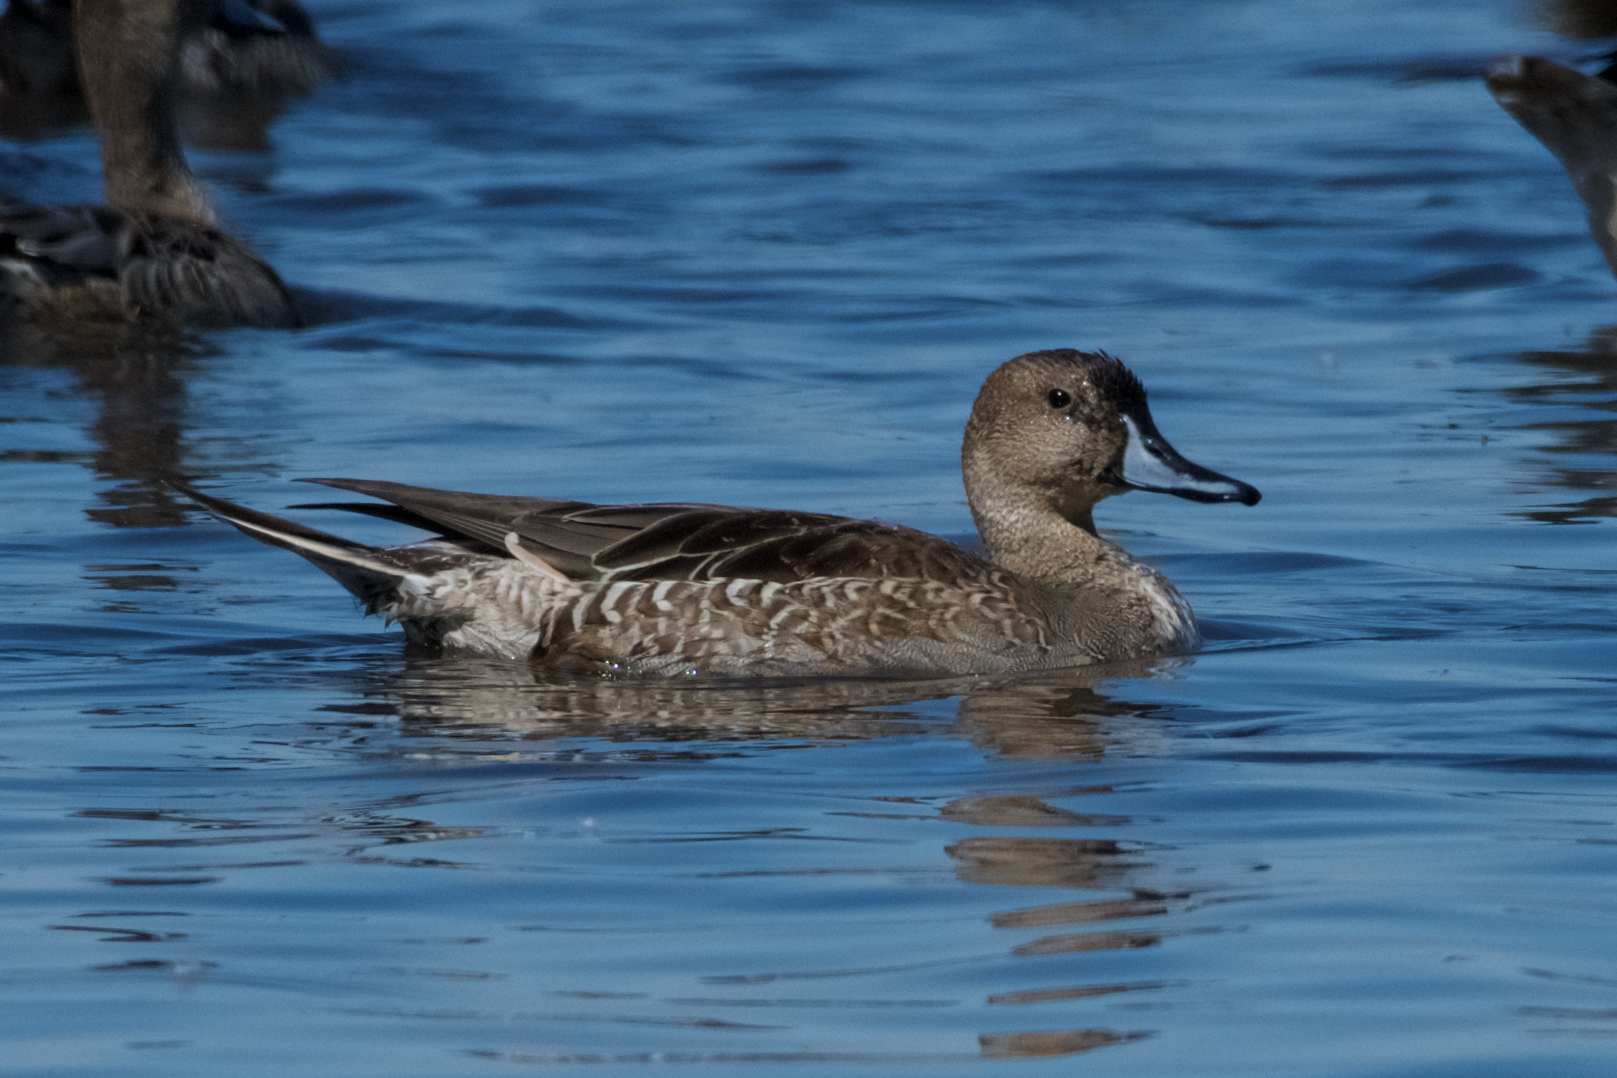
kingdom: Animalia
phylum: Chordata
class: Aves
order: Anseriformes
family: Anatidae
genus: Anas
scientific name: Anas acuta
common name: Northern pintail
